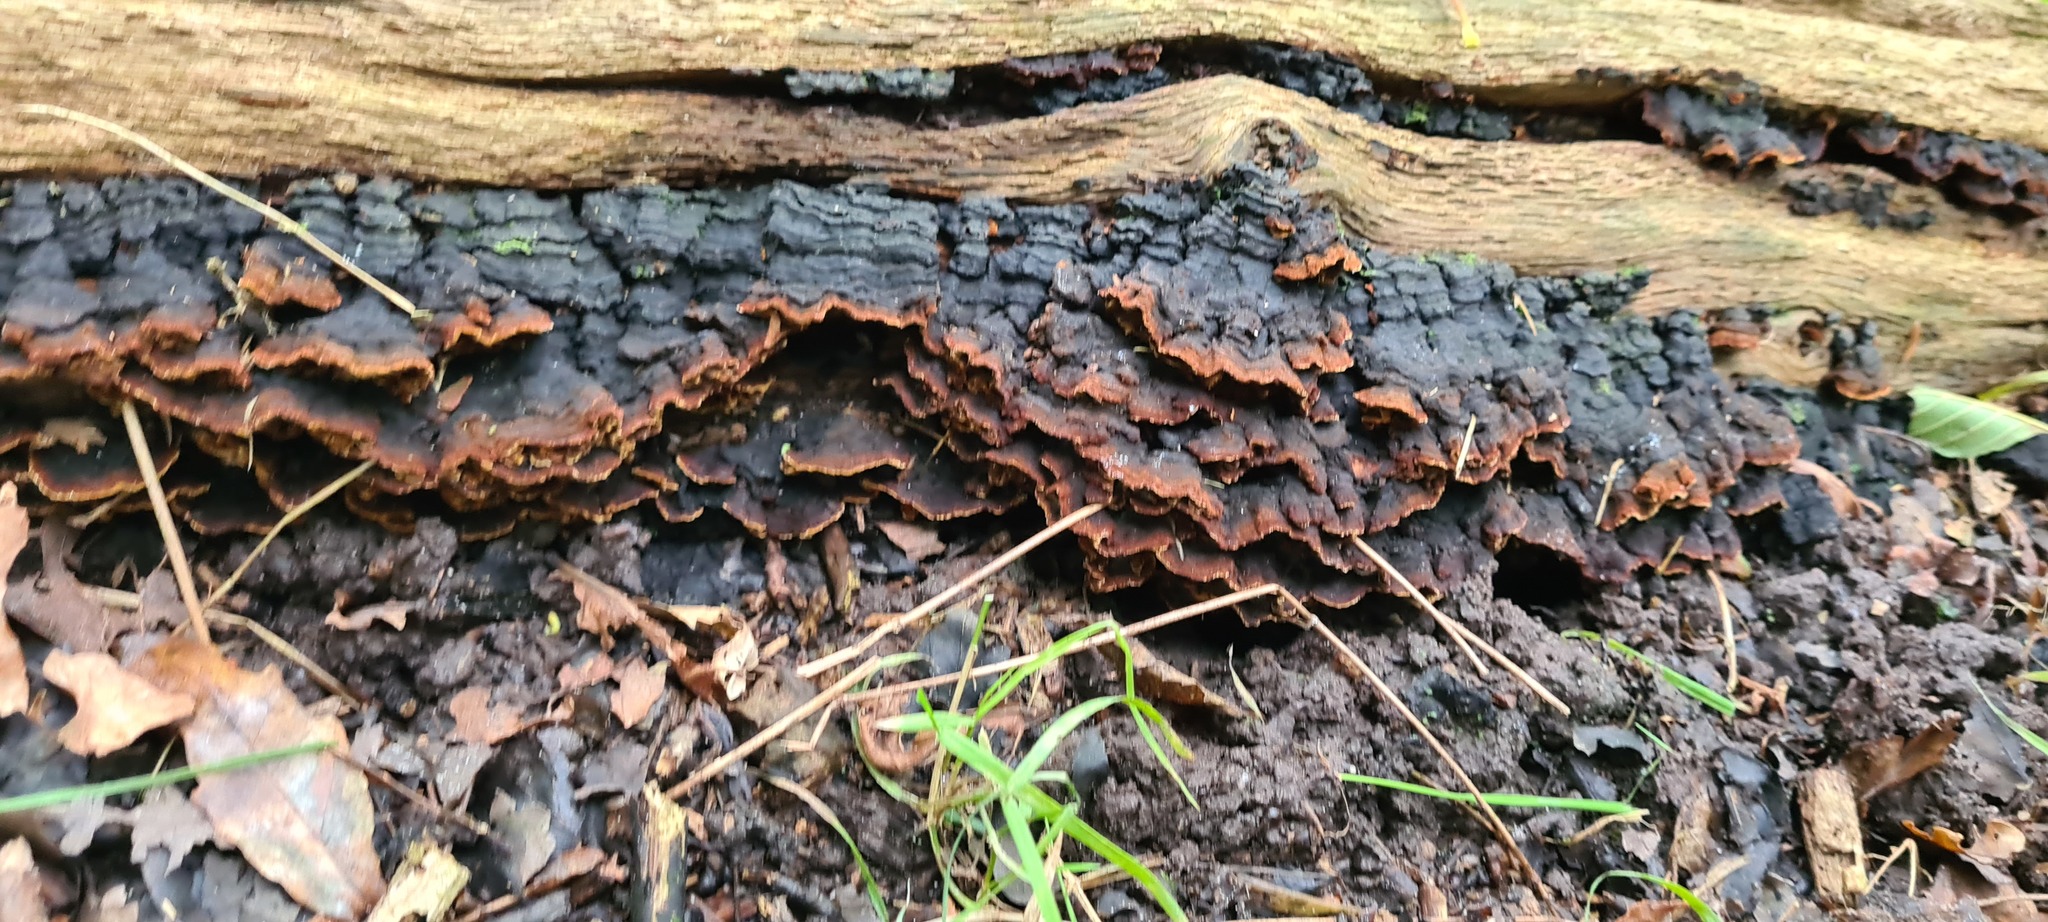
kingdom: Fungi
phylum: Basidiomycota
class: Agaricomycetes
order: Hymenochaetales
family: Hymenochaetaceae
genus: Hymenochaete
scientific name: Hymenochaete rubiginosa
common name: Oak curtain crust
